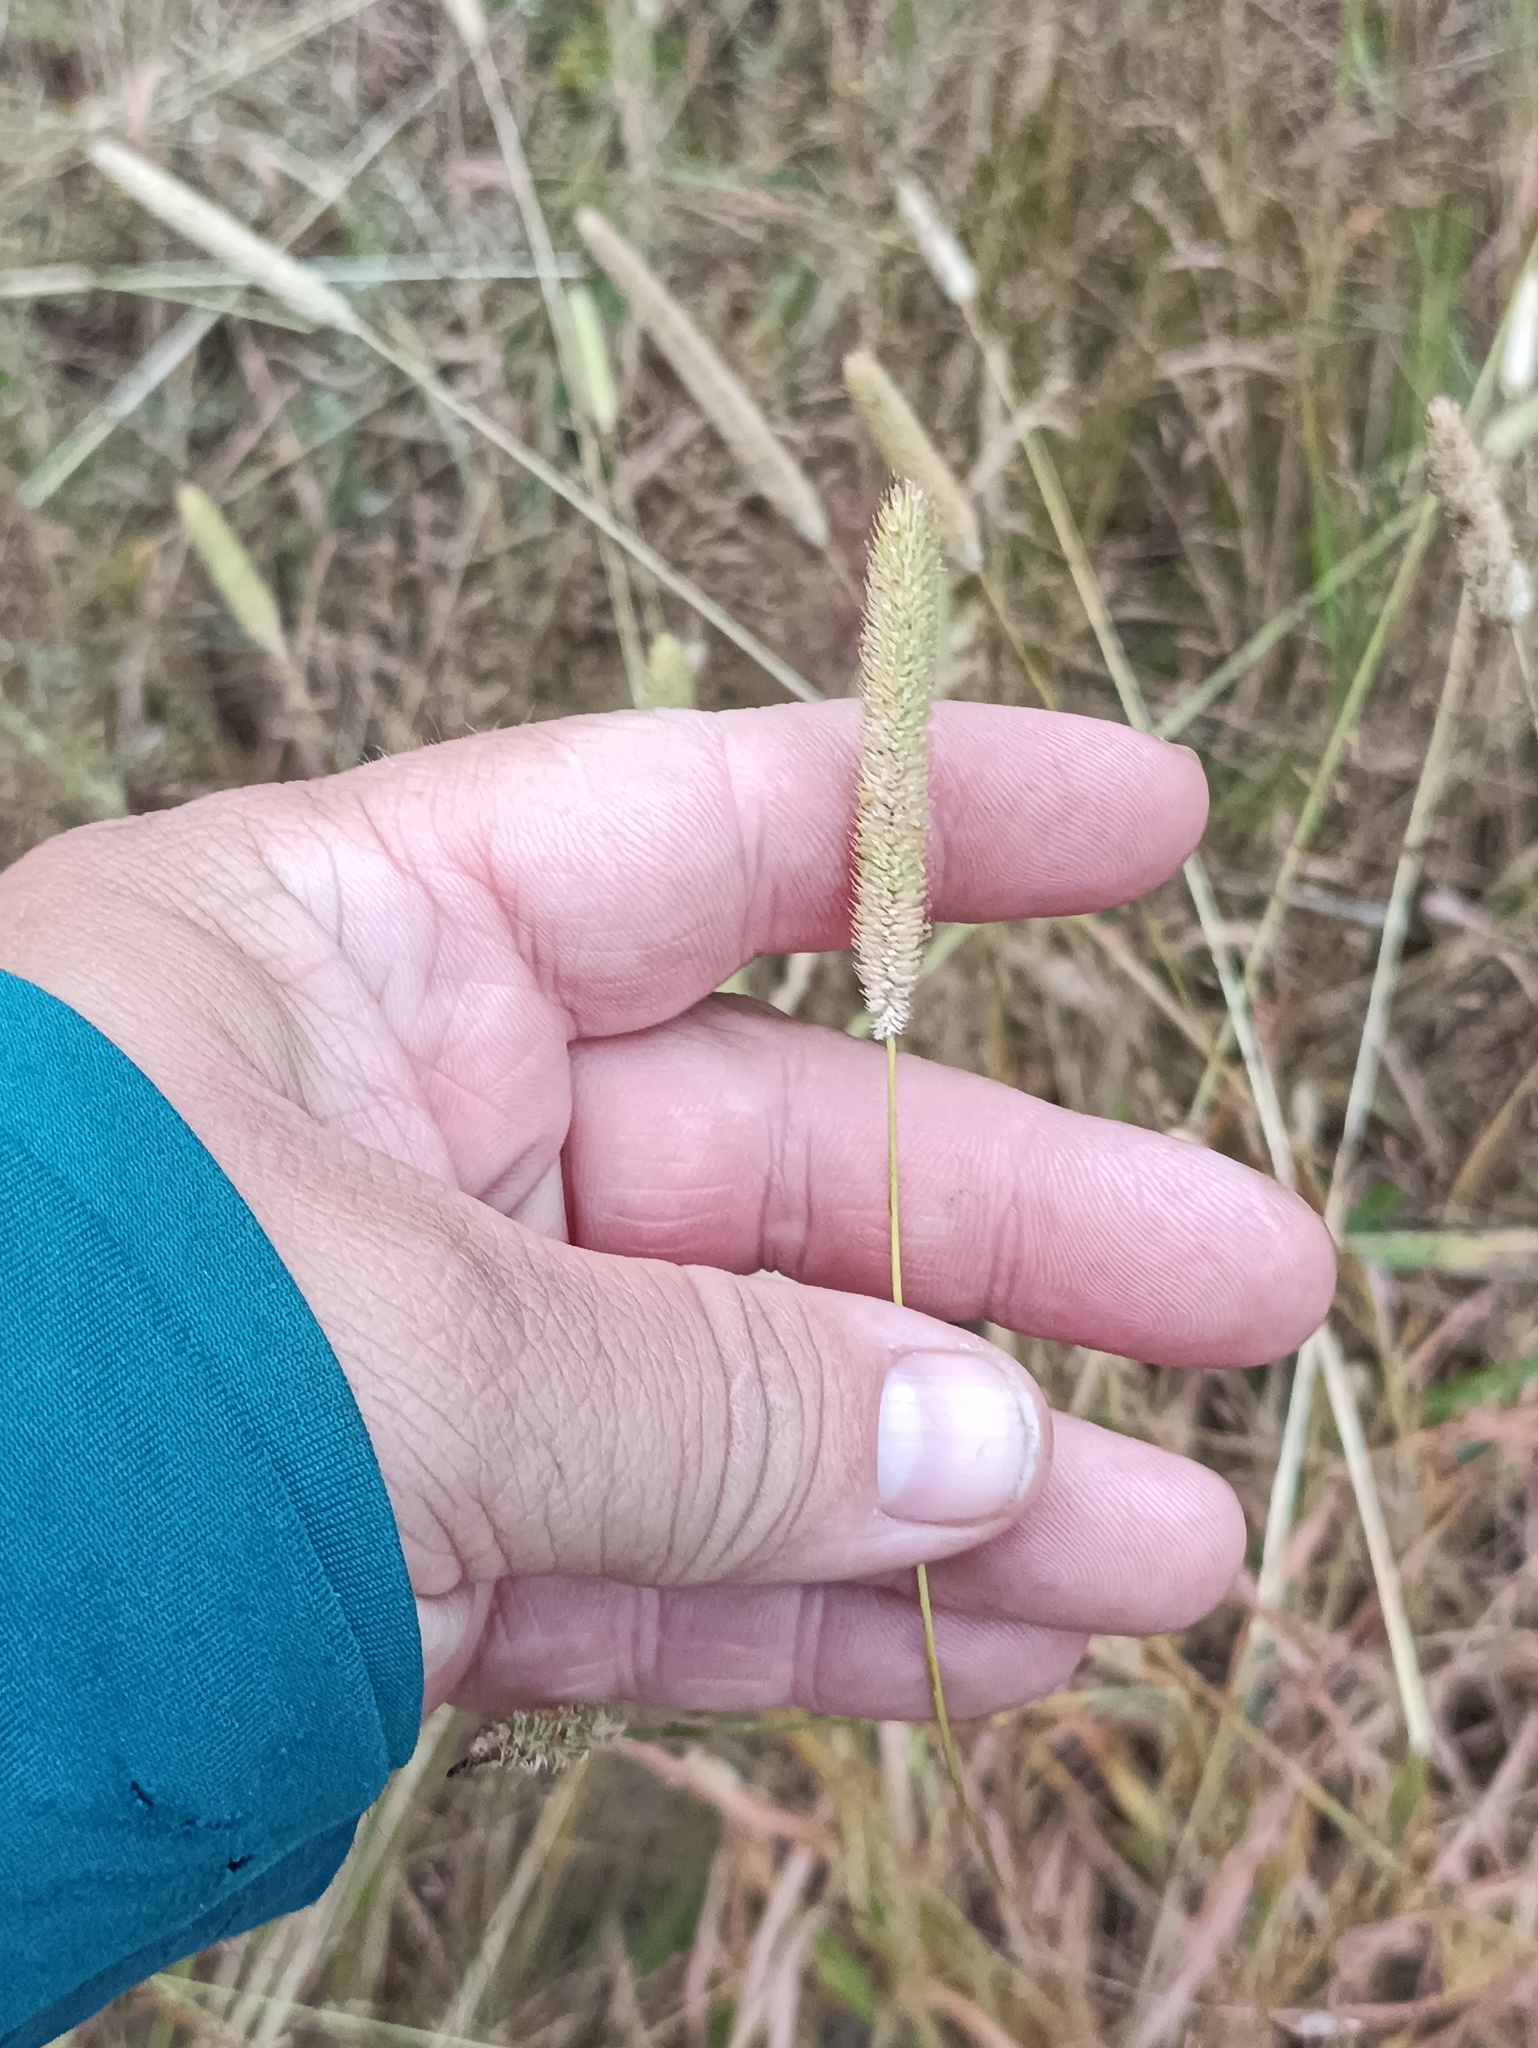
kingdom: Plantae
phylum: Tracheophyta
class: Liliopsida
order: Poales
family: Poaceae
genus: Phleum
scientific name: Phleum pratense
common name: Timothy grass
